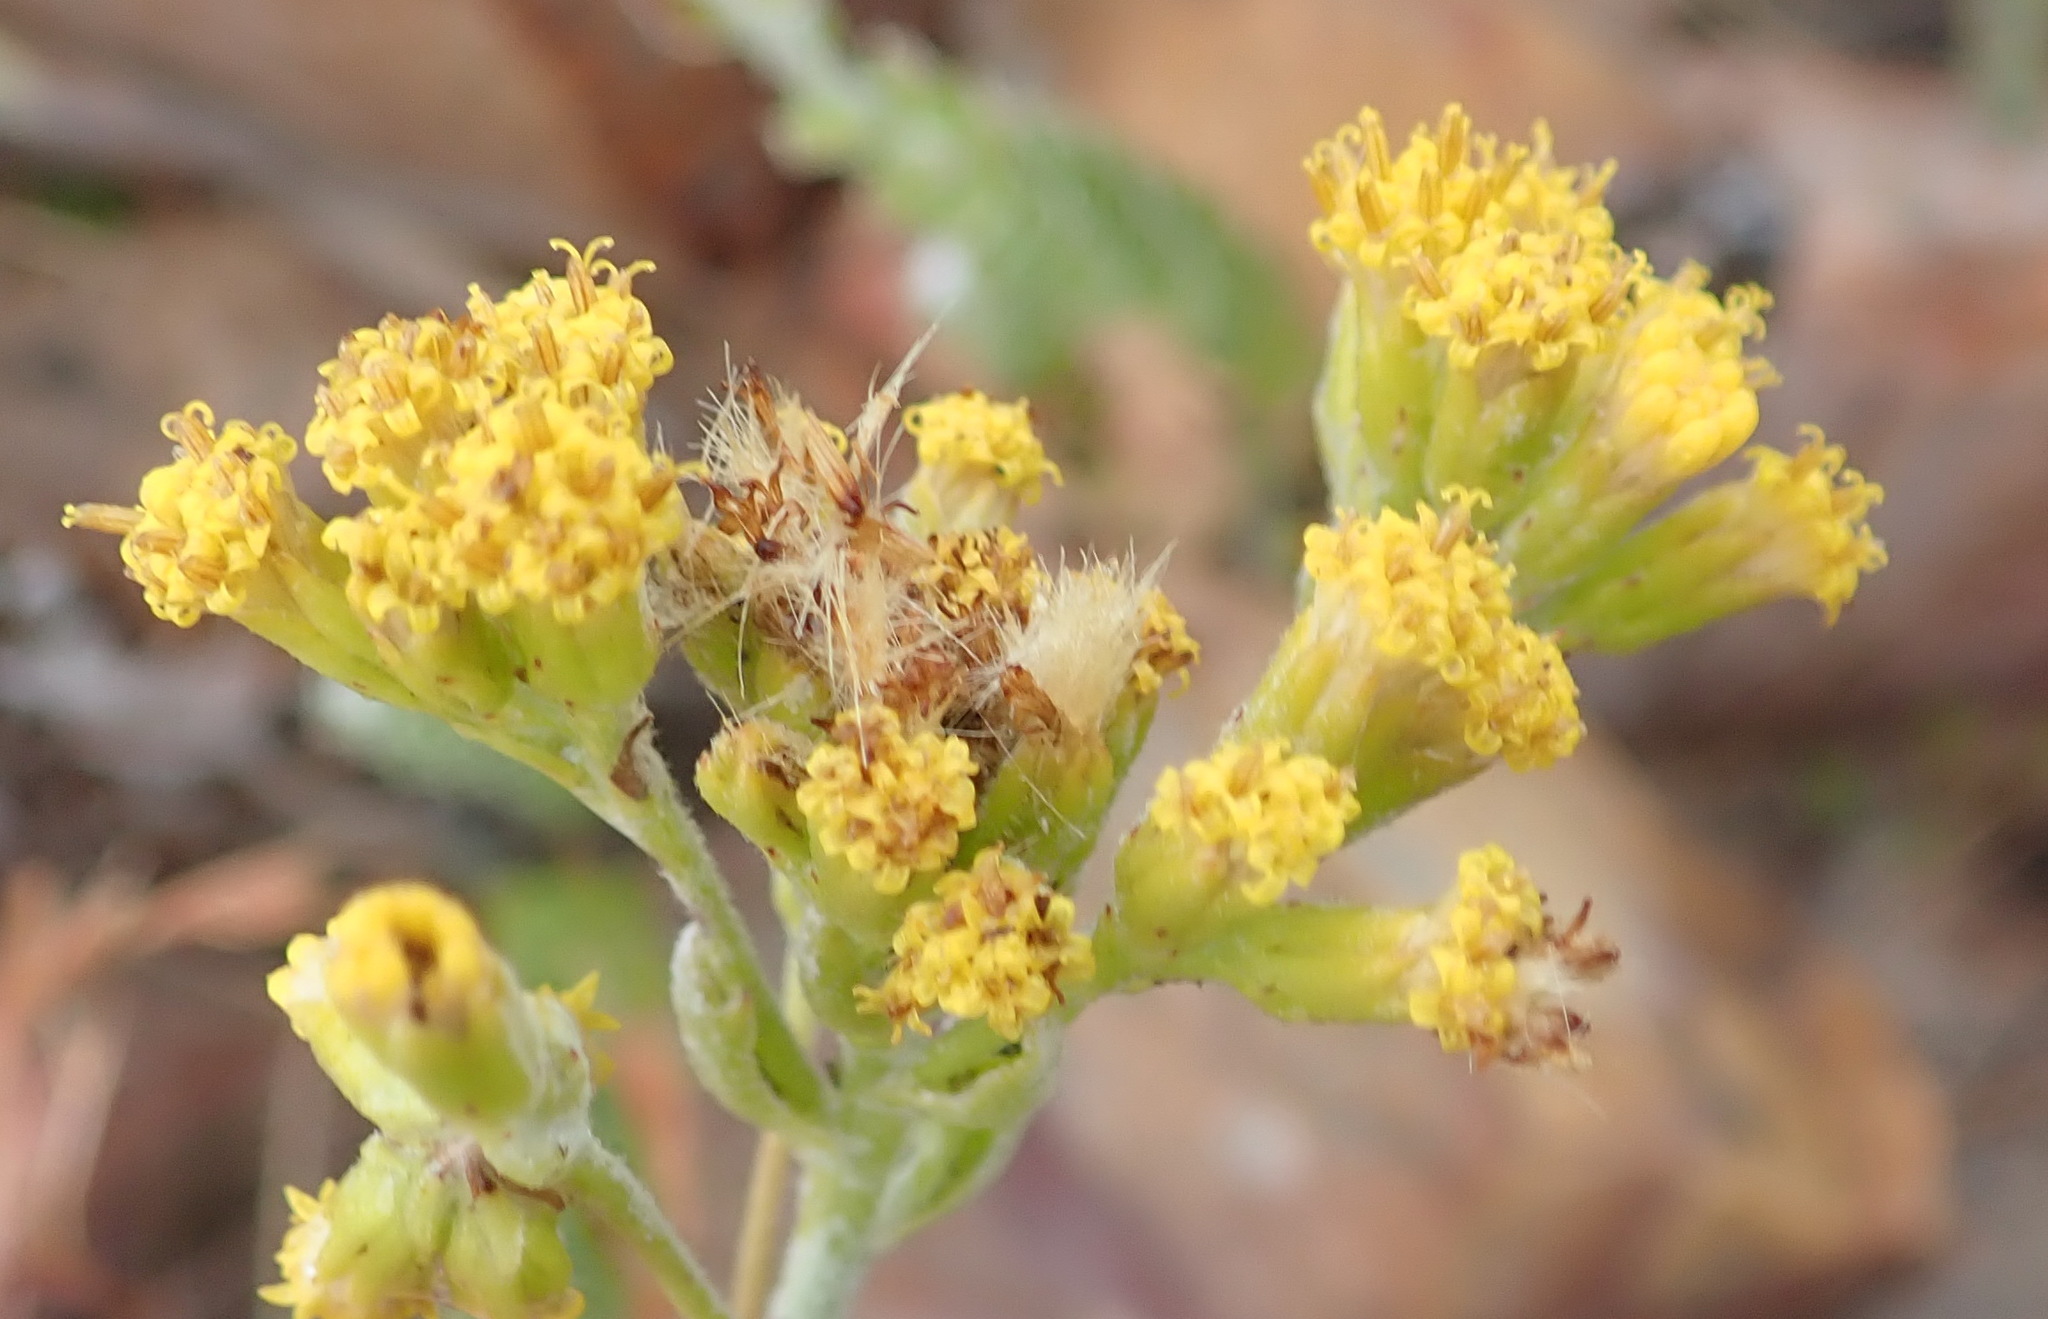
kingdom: Plantae
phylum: Tracheophyta
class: Magnoliopsida
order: Asterales
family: Asteraceae
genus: Senecio
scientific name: Senecio pauciflosculosus
